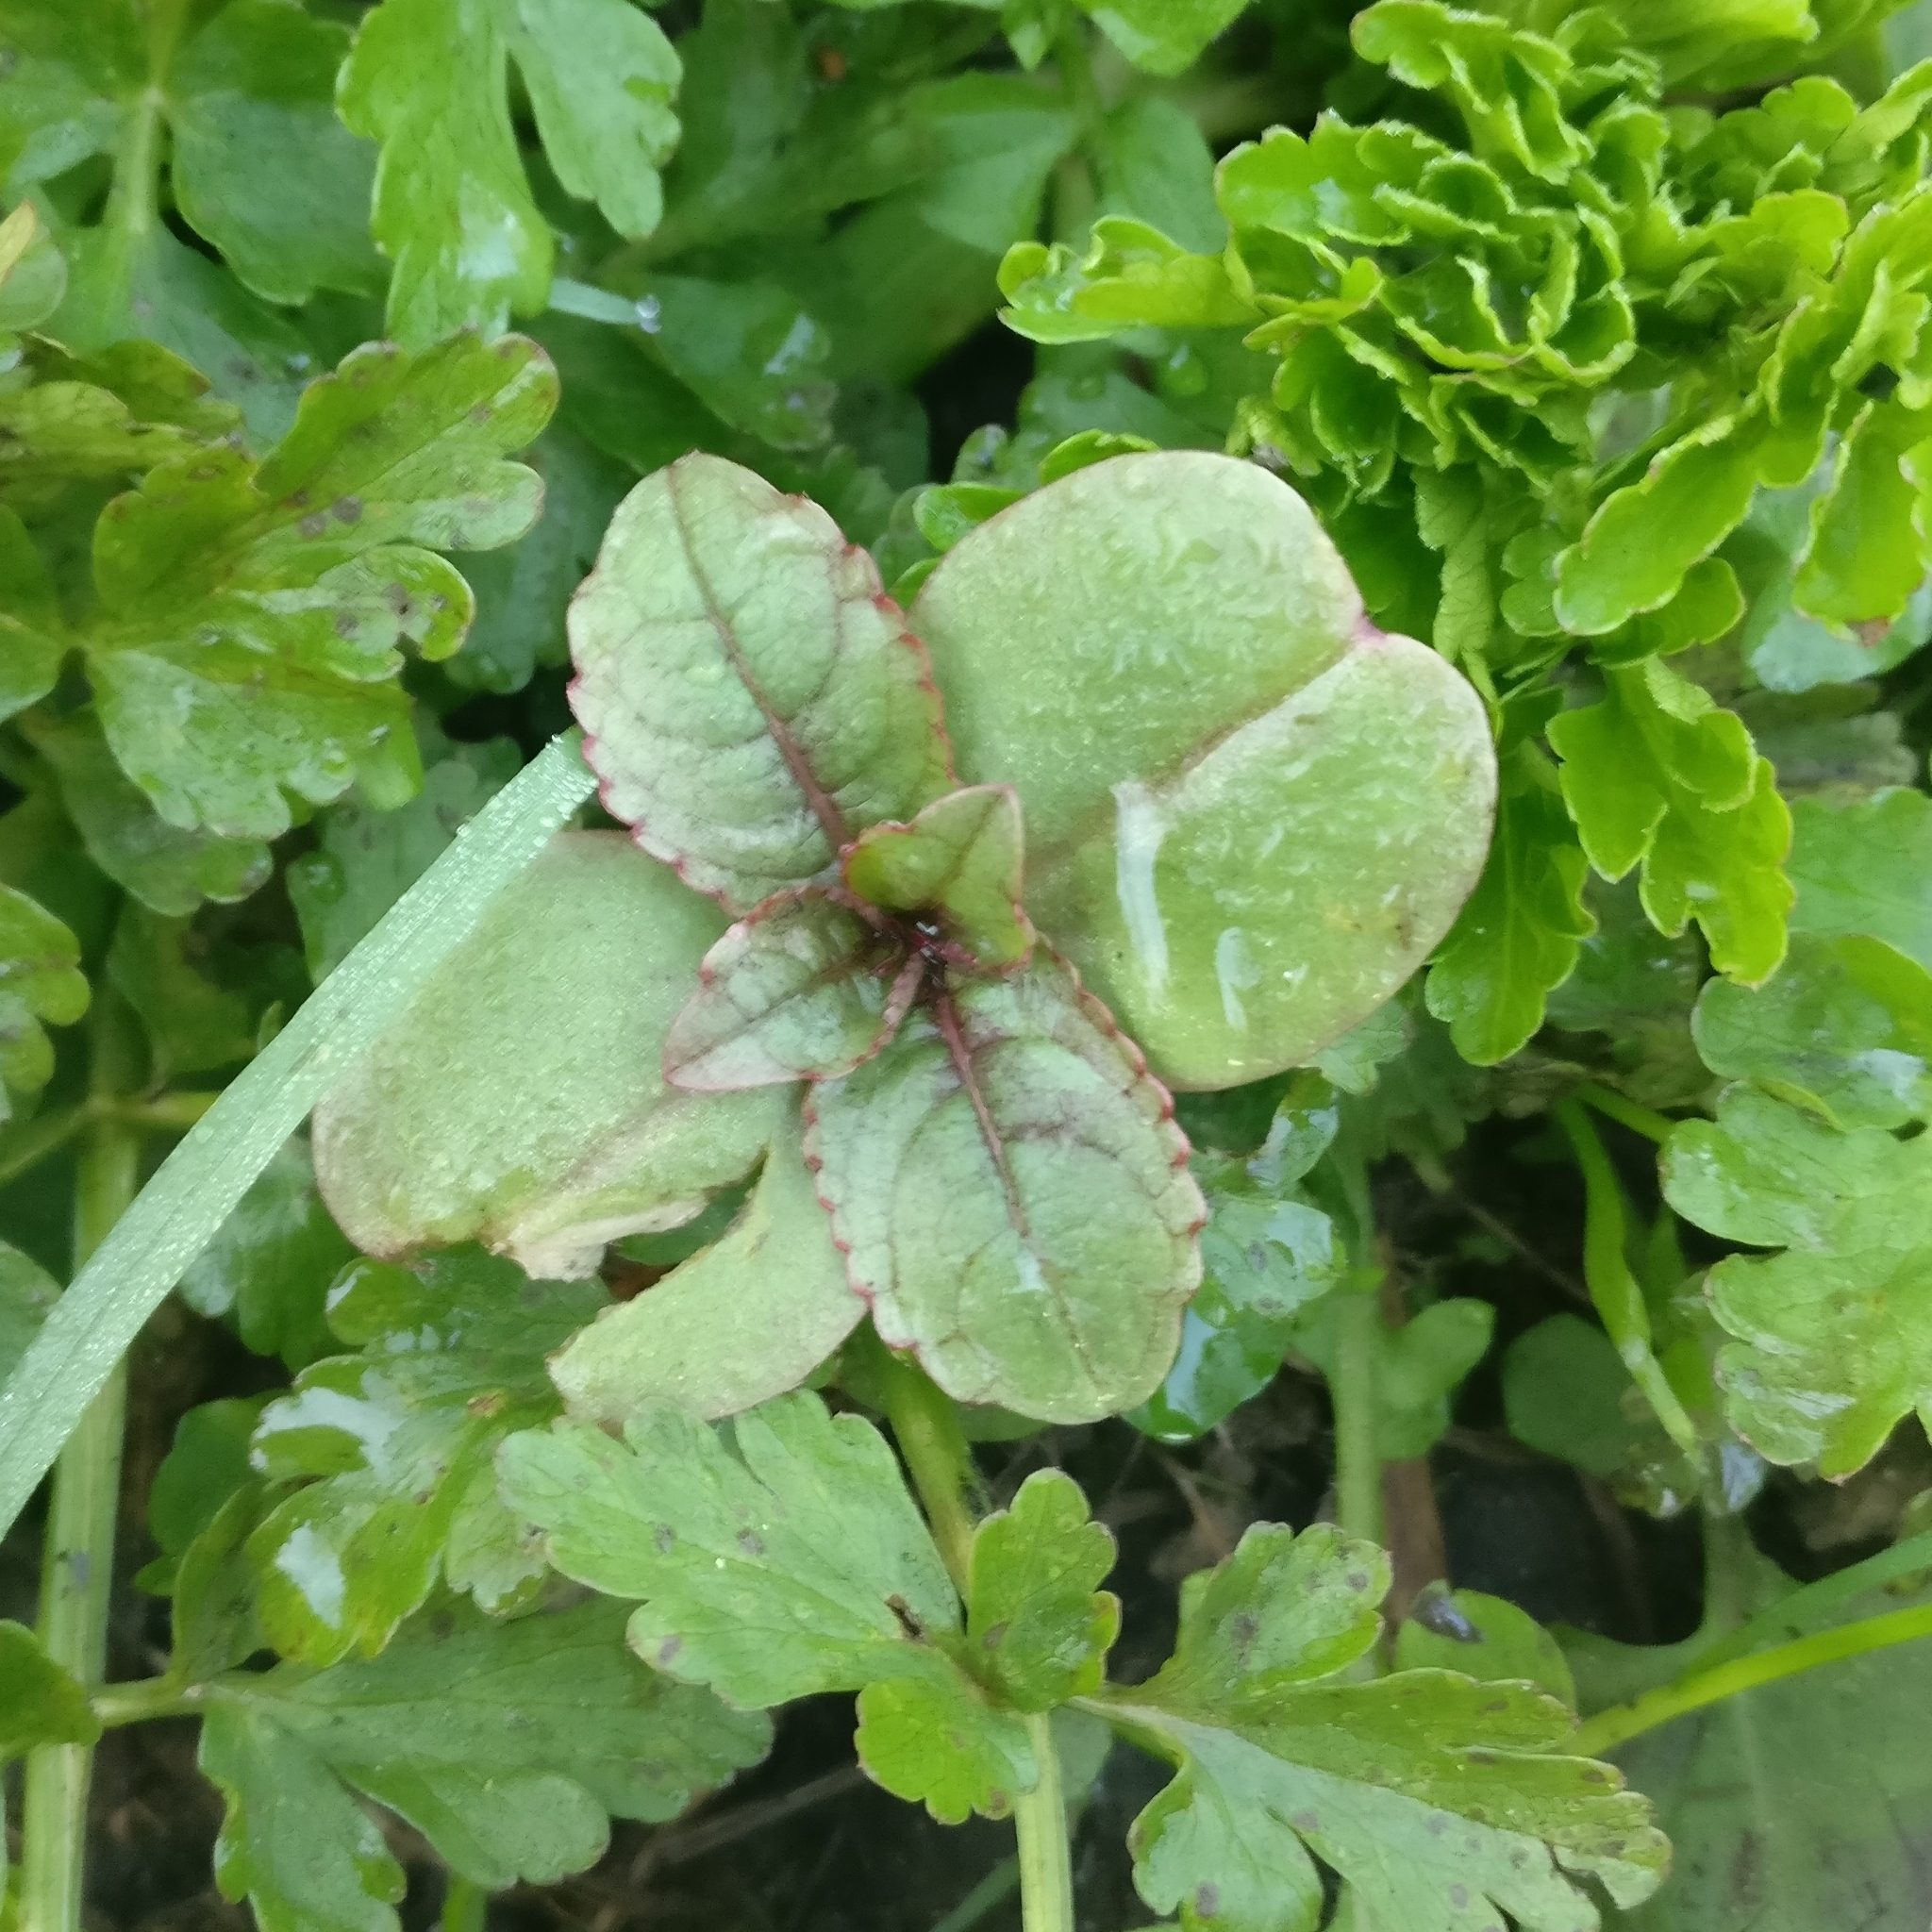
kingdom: Plantae
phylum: Tracheophyta
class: Magnoliopsida
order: Ericales
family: Balsaminaceae
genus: Impatiens
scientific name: Impatiens glandulifera
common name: Himalayan balsam
